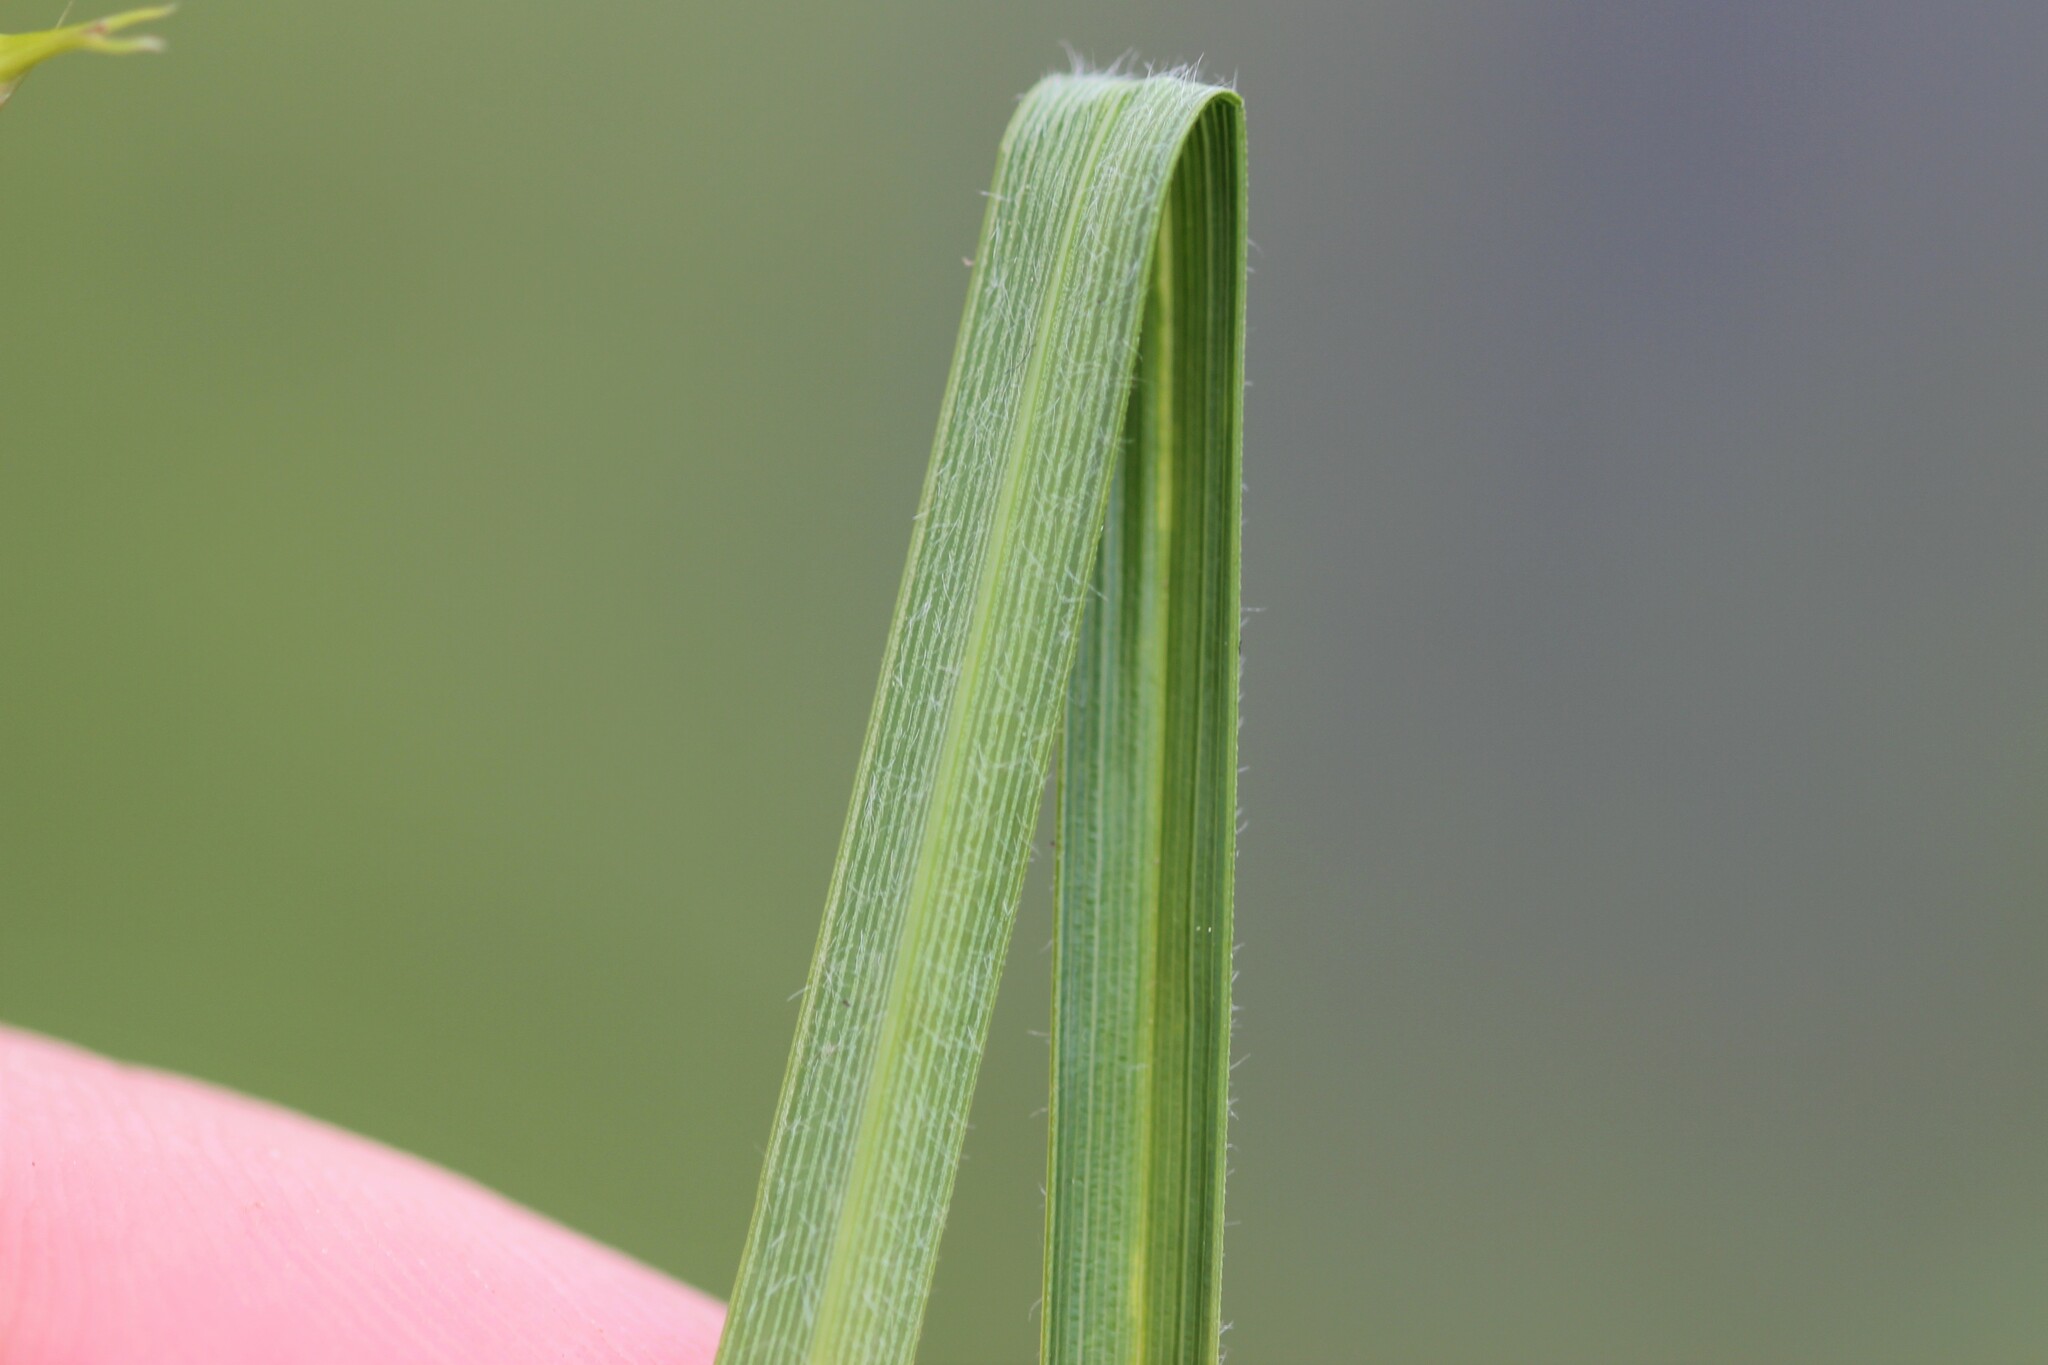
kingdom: Plantae
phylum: Tracheophyta
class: Liliopsida
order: Poales
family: Cyperaceae
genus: Carex
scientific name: Carex atherodes
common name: Wheat sedge
